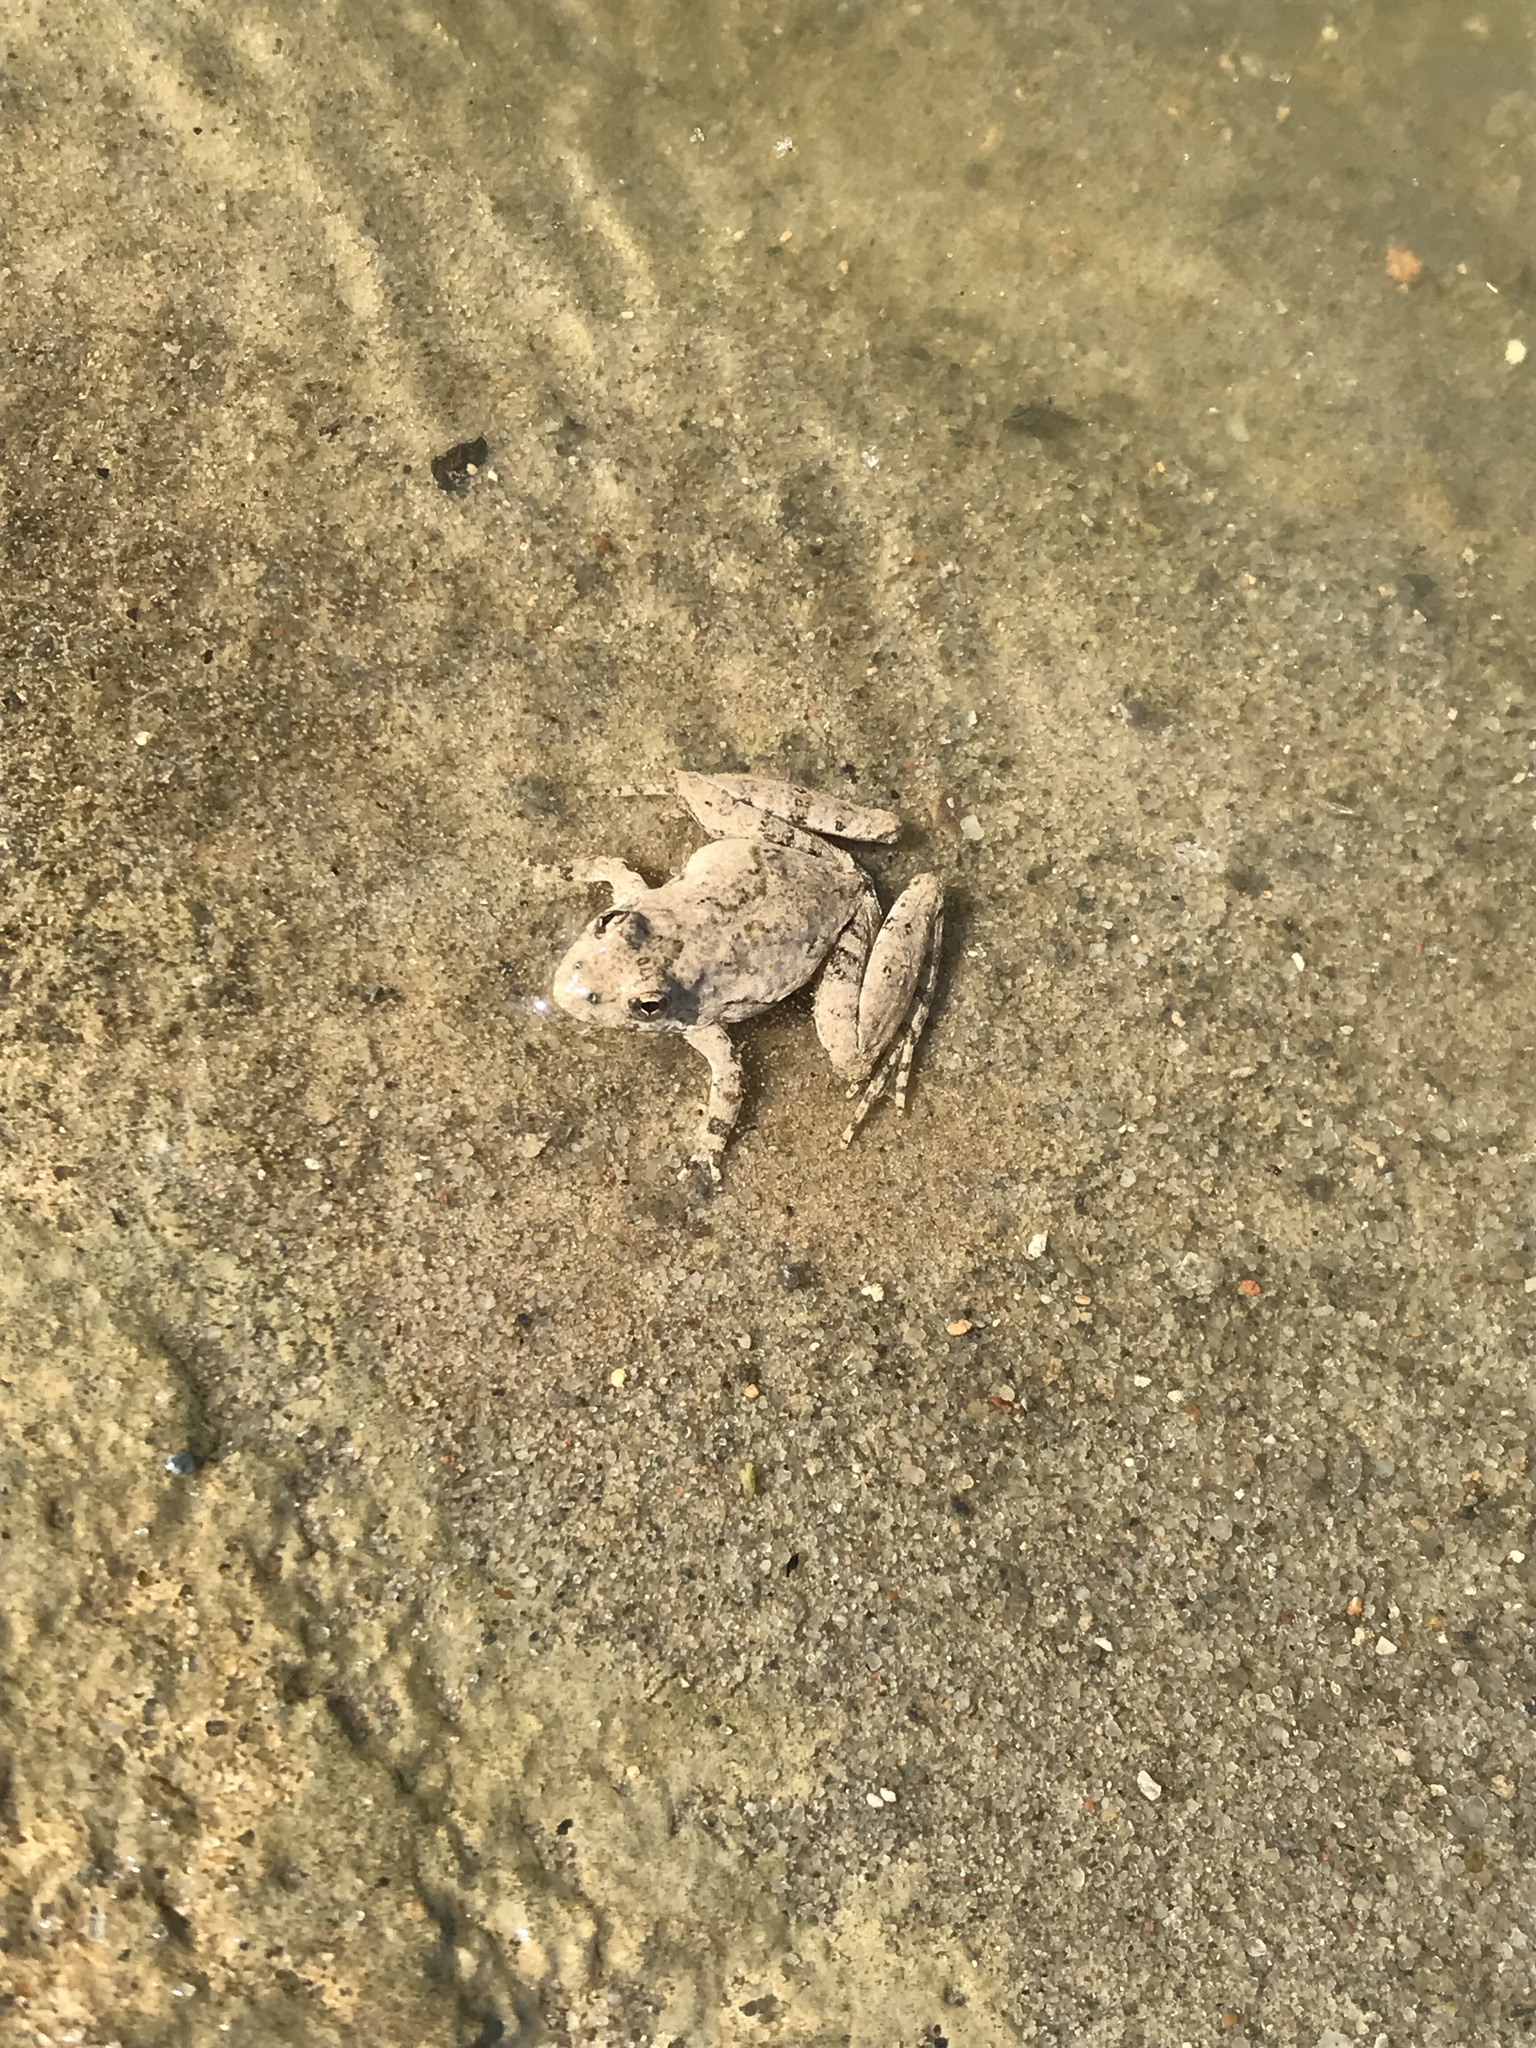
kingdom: Animalia
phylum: Chordata
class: Amphibia
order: Anura
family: Hylidae
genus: Acris
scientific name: Acris blanchardi
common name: Blanchard's cricket frog
